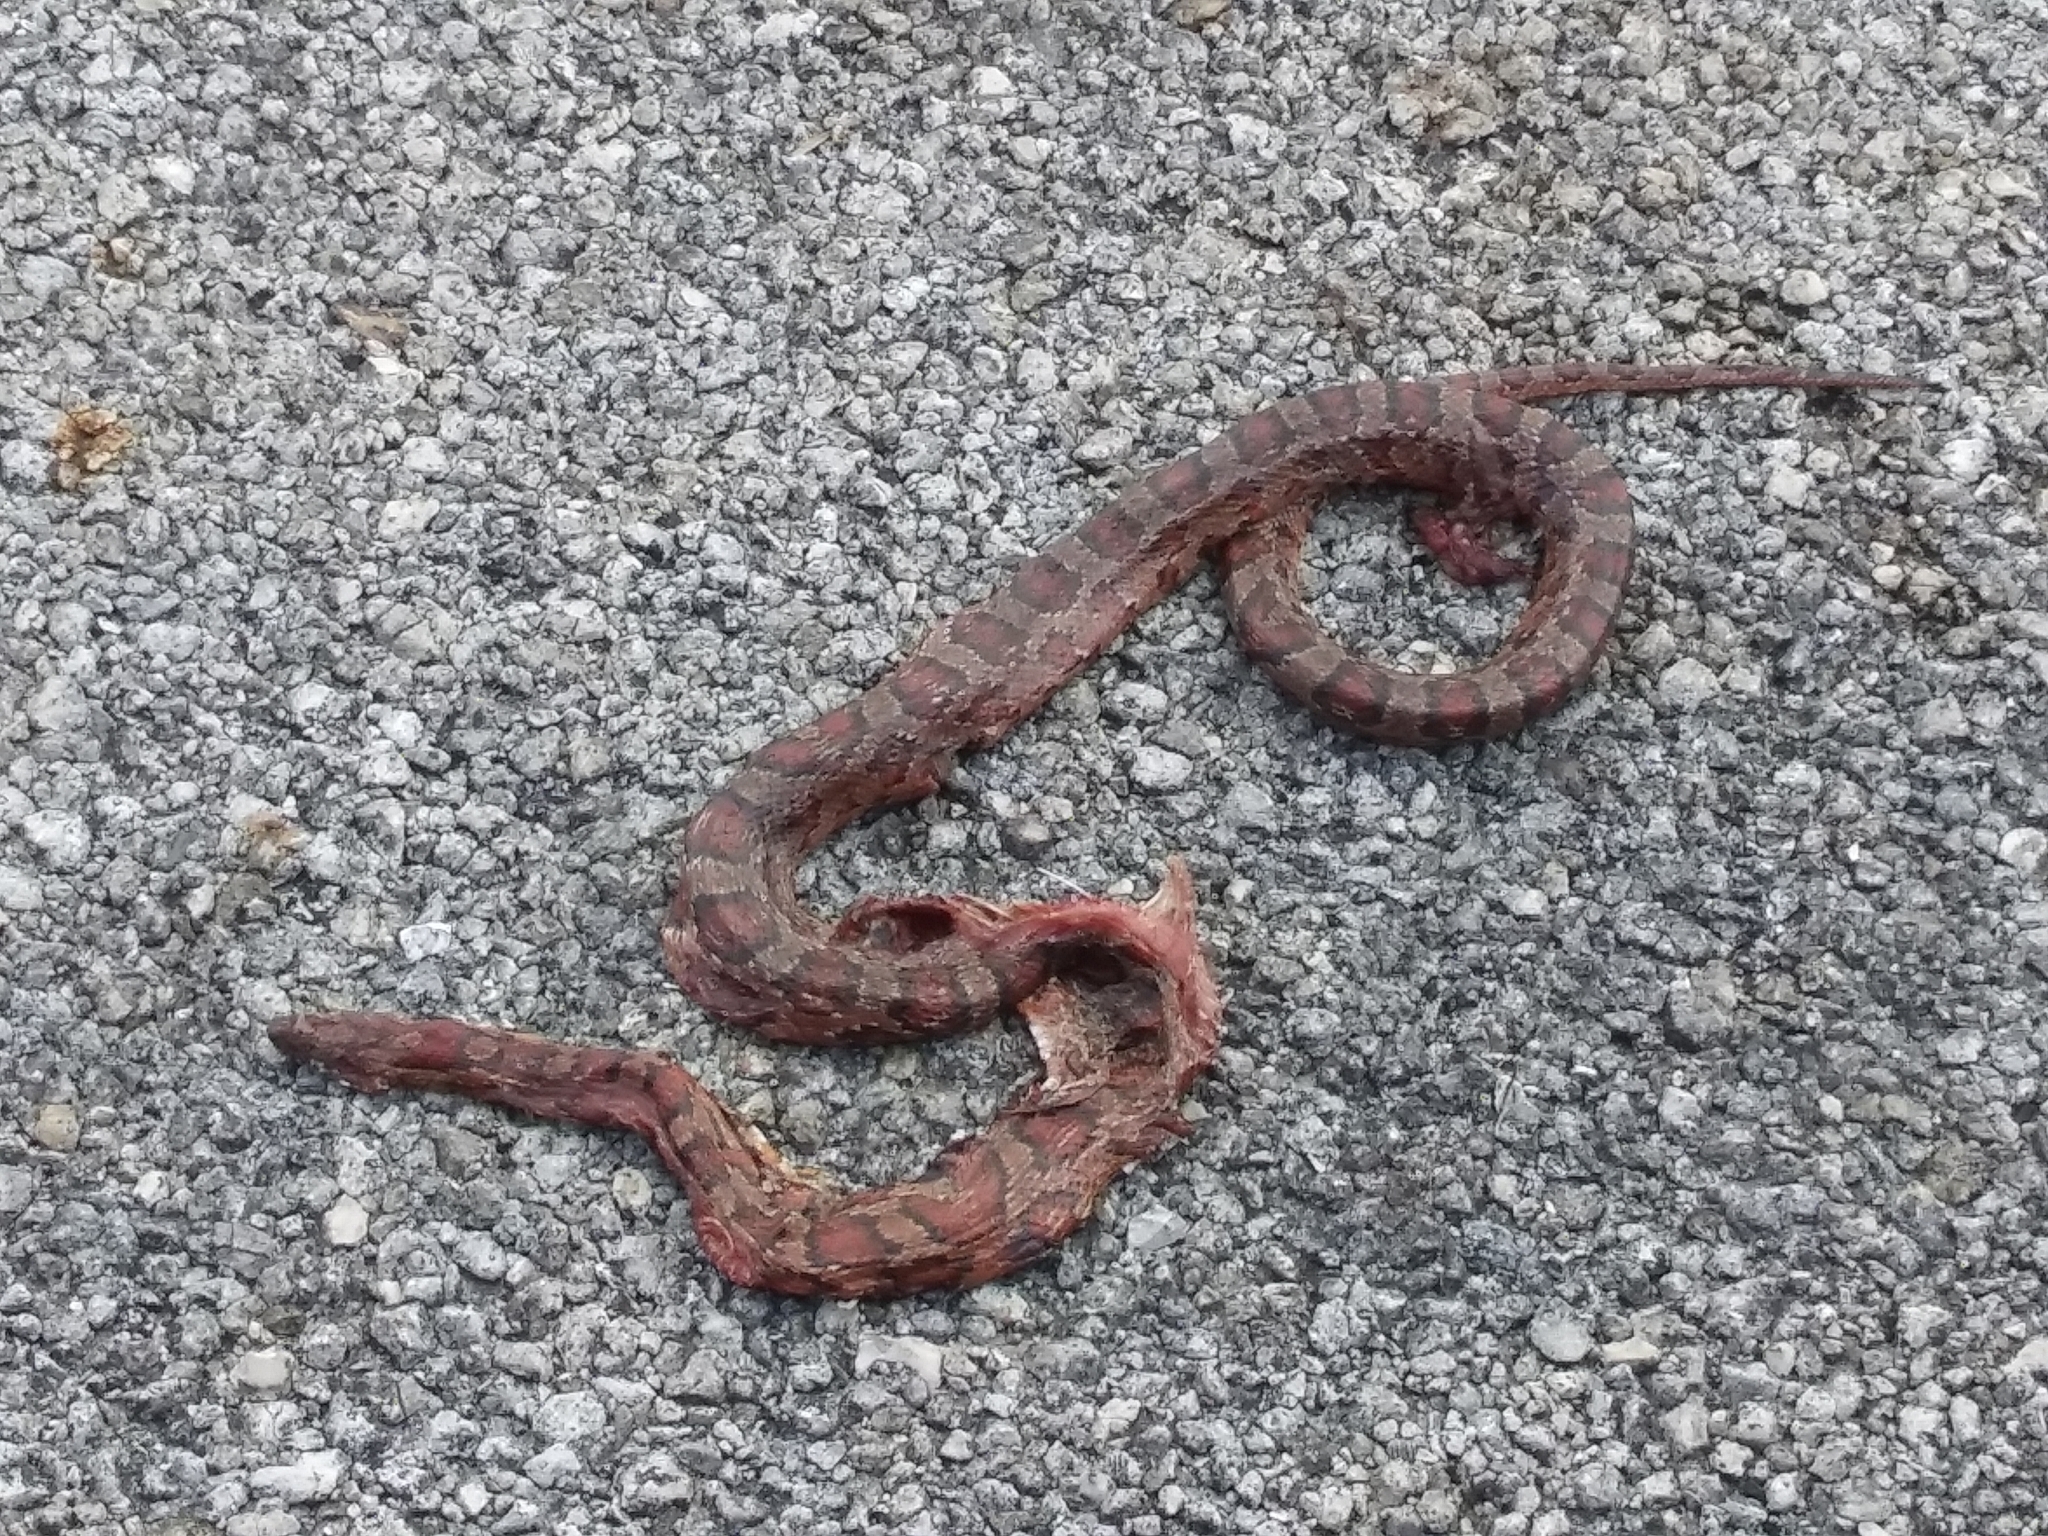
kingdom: Animalia
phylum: Chordata
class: Squamata
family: Colubridae
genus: Pantherophis
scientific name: Pantherophis guttatus
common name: Red cornsnake
